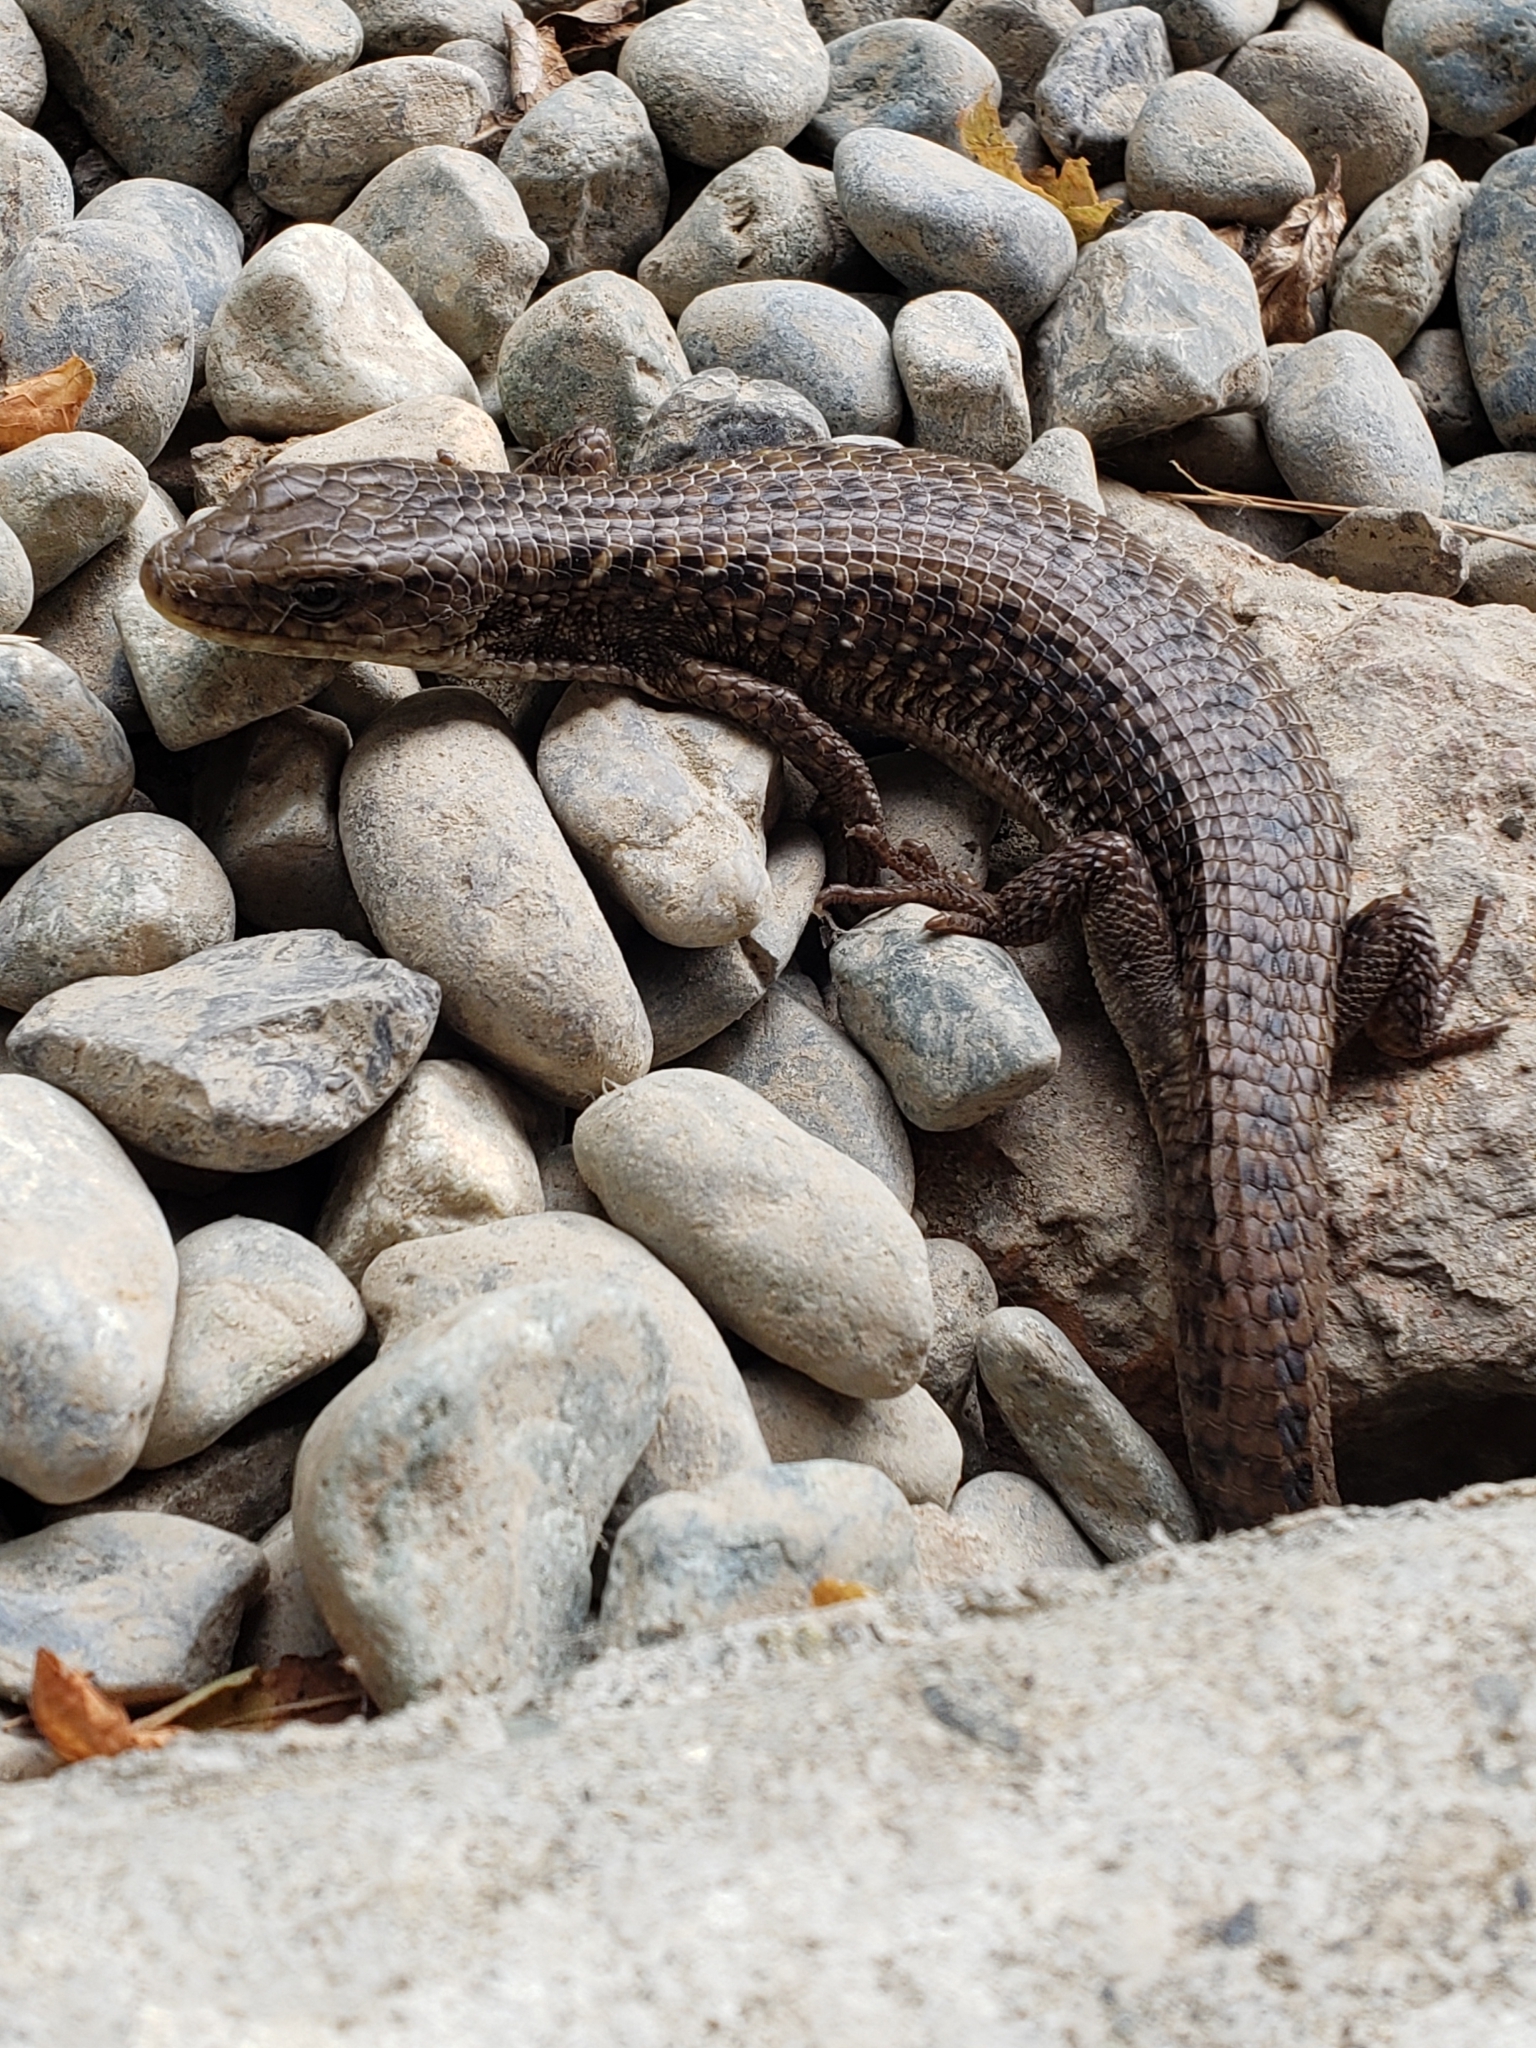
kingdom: Animalia
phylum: Chordata
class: Squamata
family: Anguidae
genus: Elgaria
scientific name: Elgaria coerulea
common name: Northern alligator lizard
